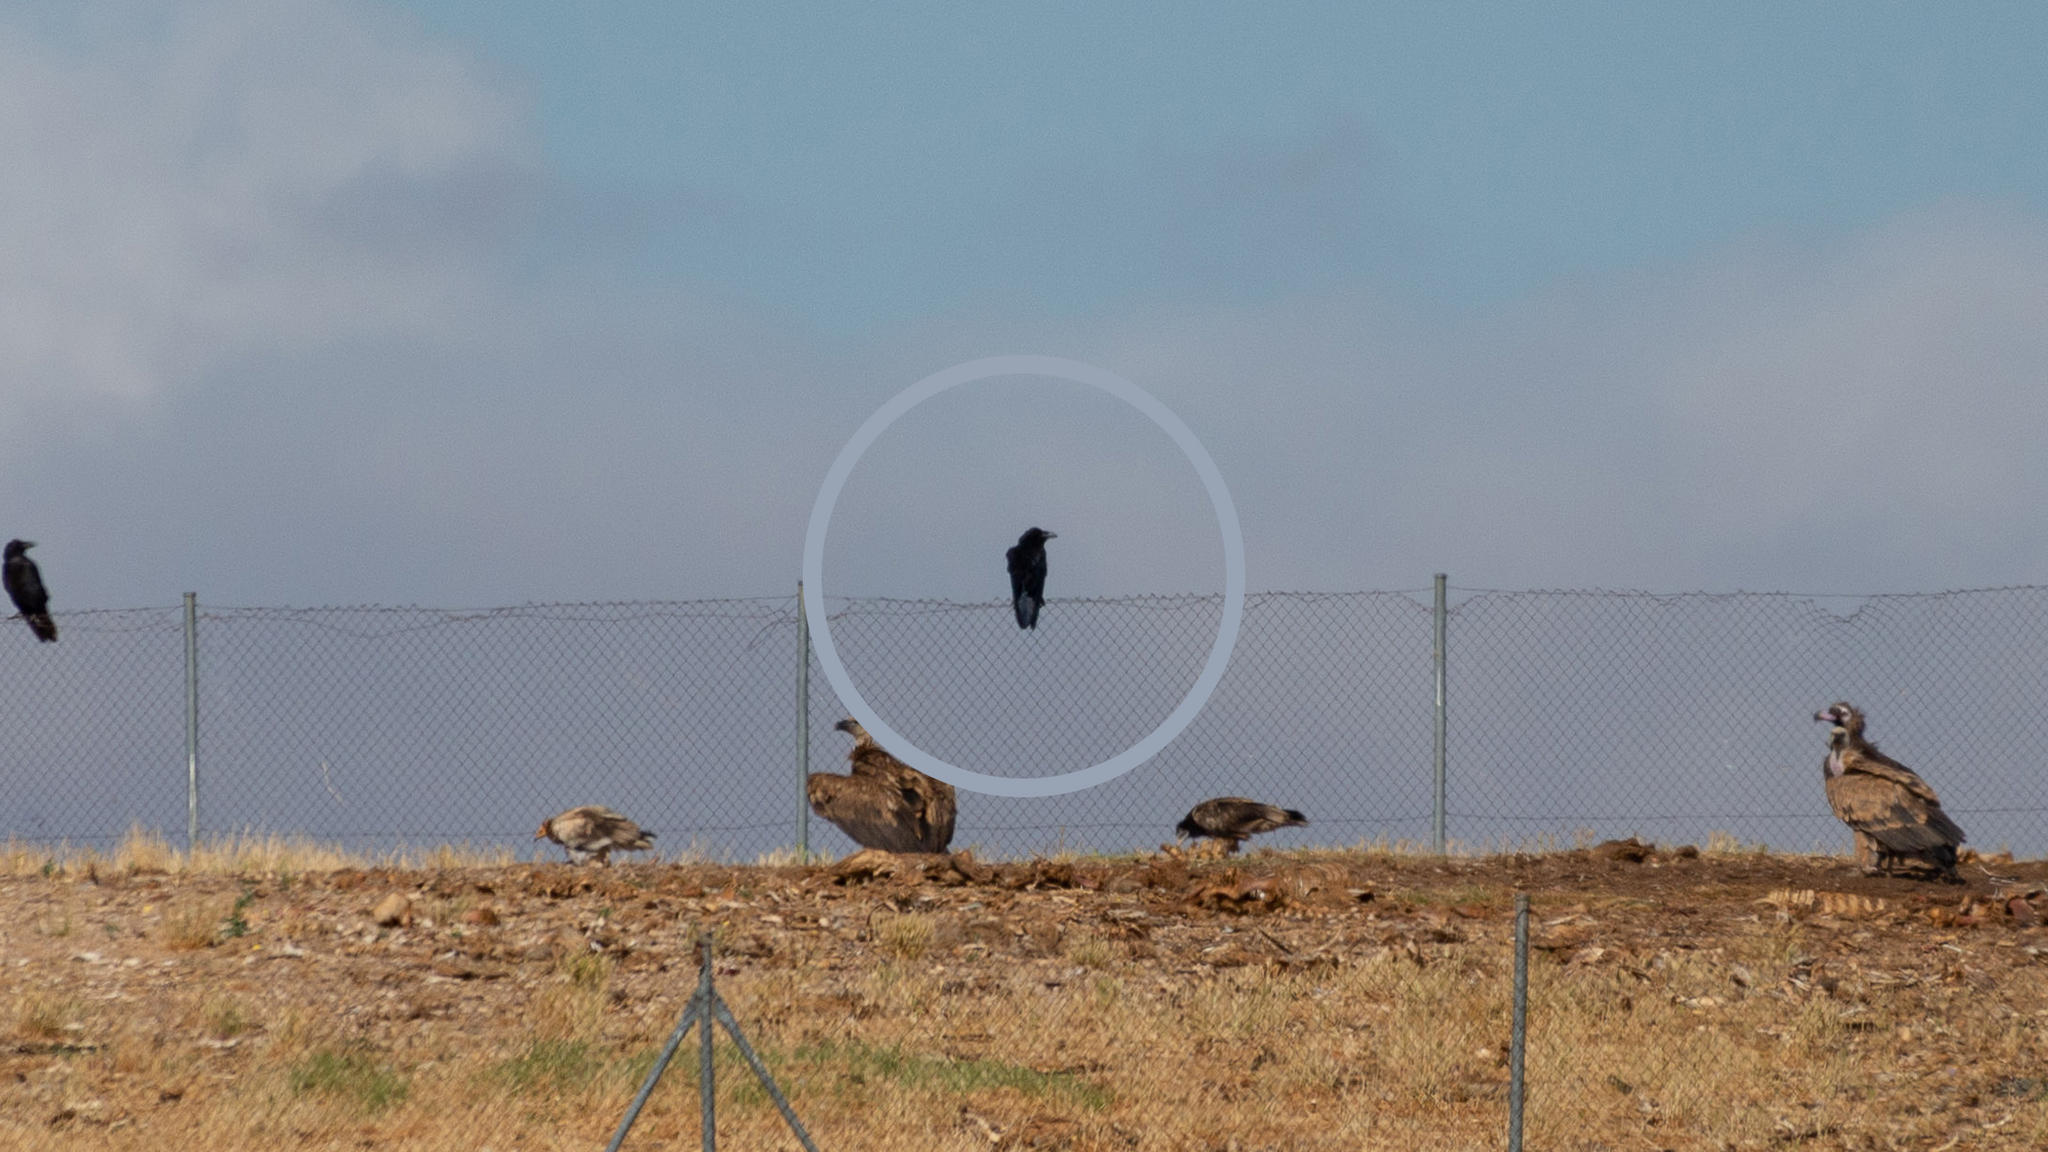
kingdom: Animalia
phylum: Chordata
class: Aves
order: Passeriformes
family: Corvidae
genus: Corvus
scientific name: Corvus corax
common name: Common raven
